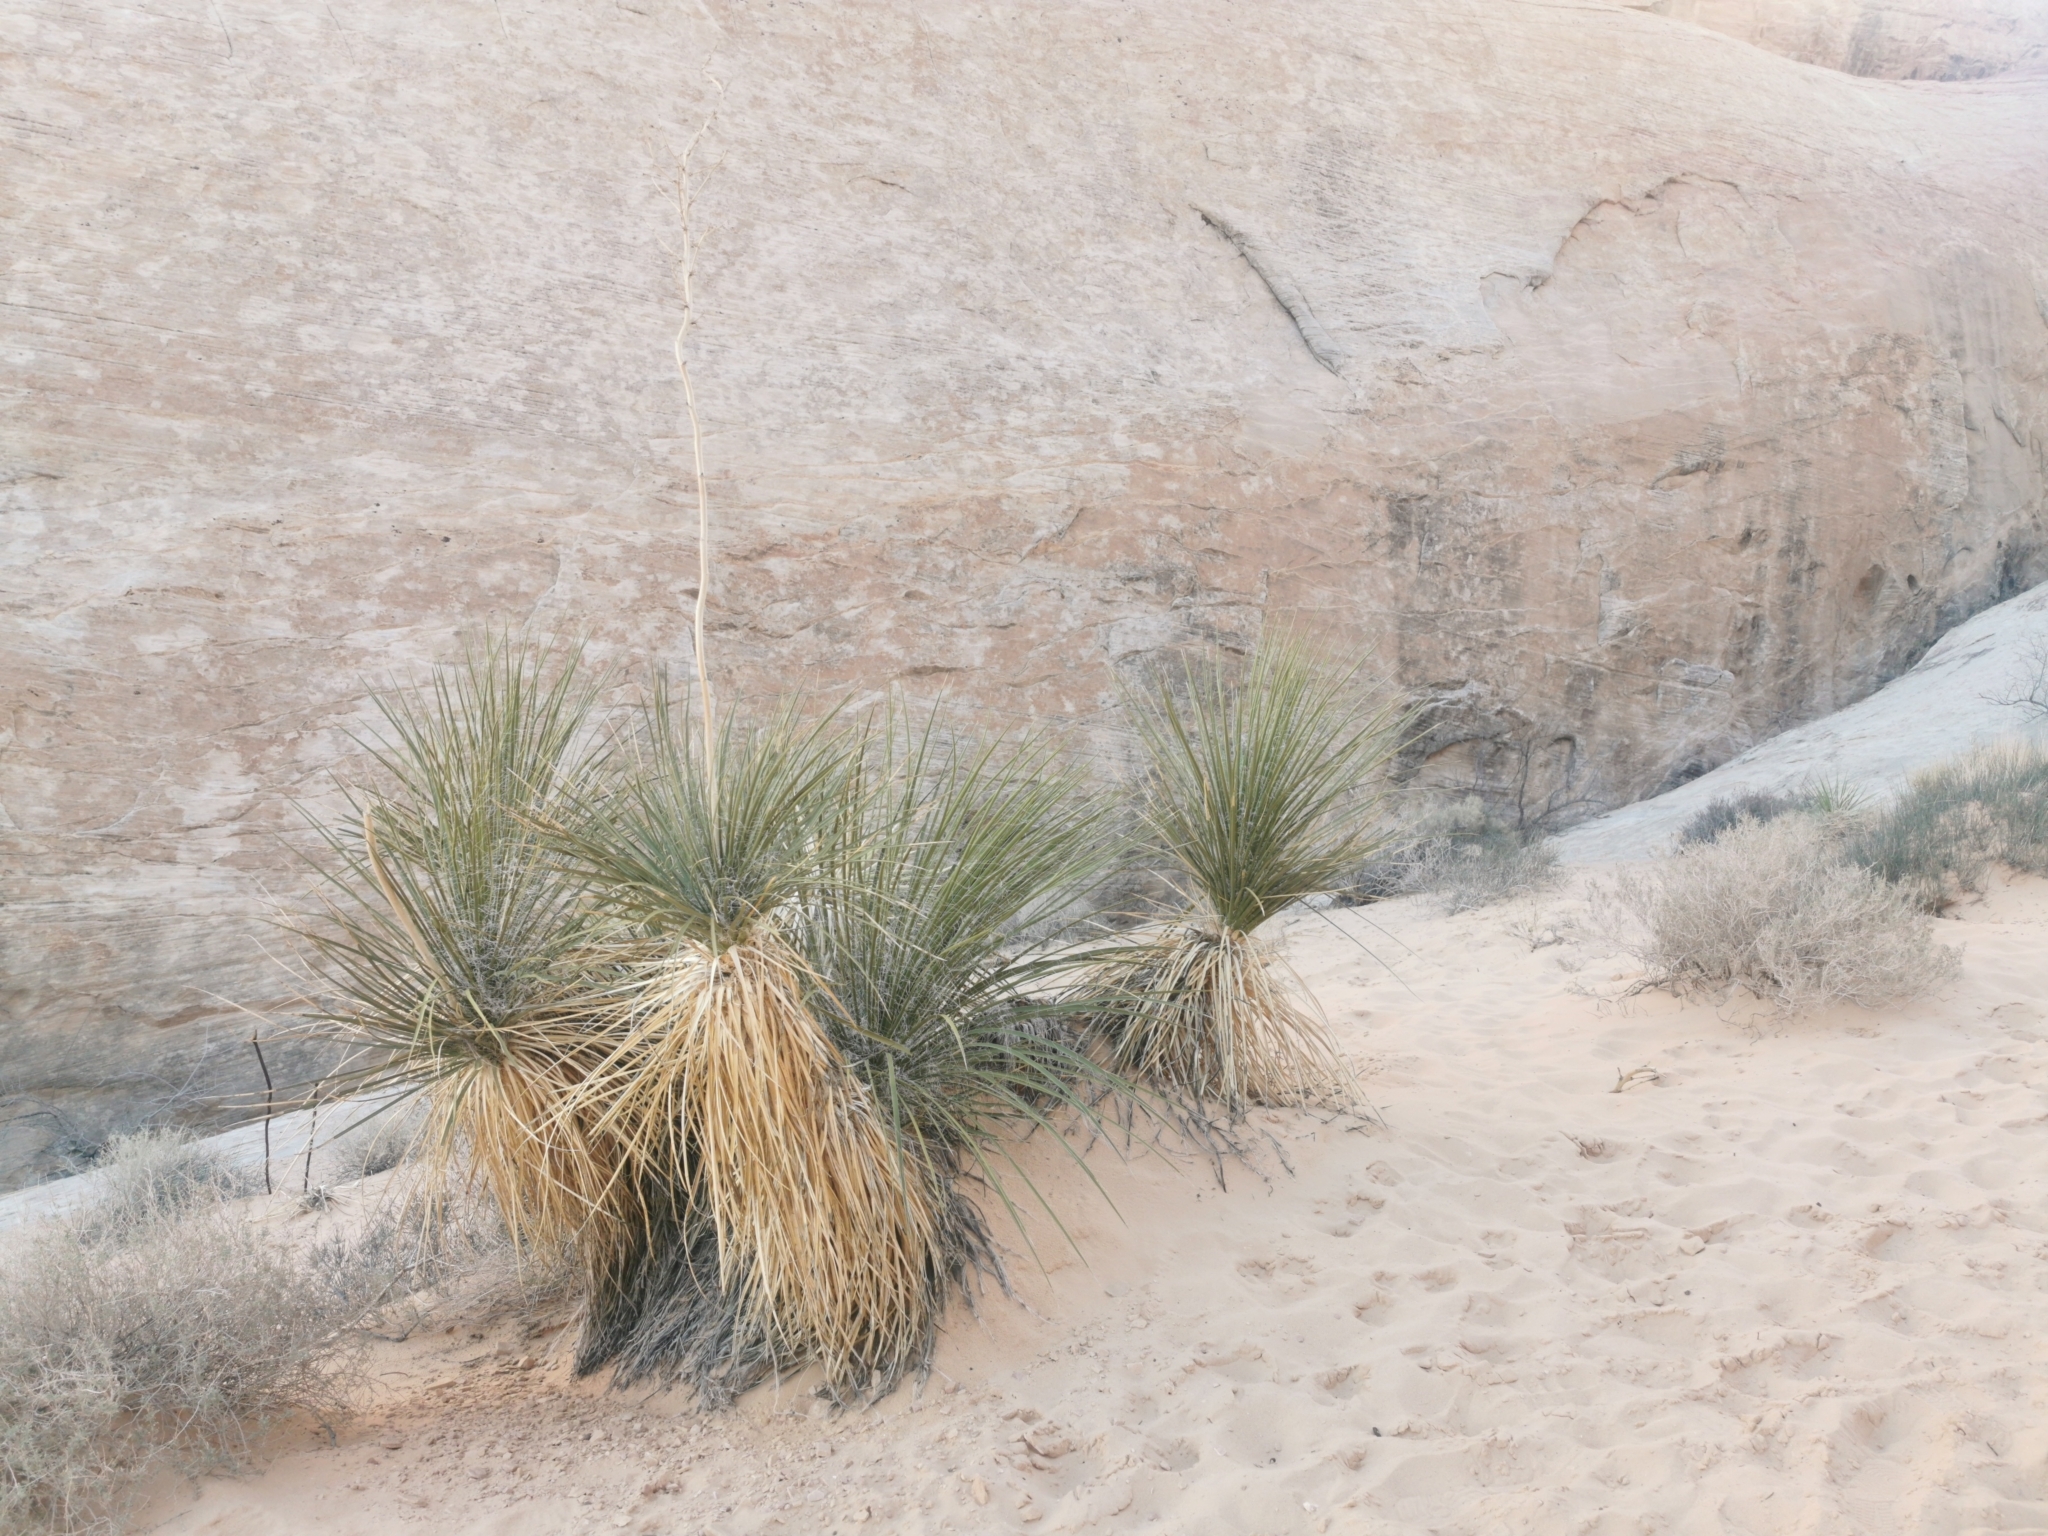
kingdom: Plantae
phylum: Tracheophyta
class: Liliopsida
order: Asparagales
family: Asparagaceae
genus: Yucca
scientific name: Yucca utahensis
